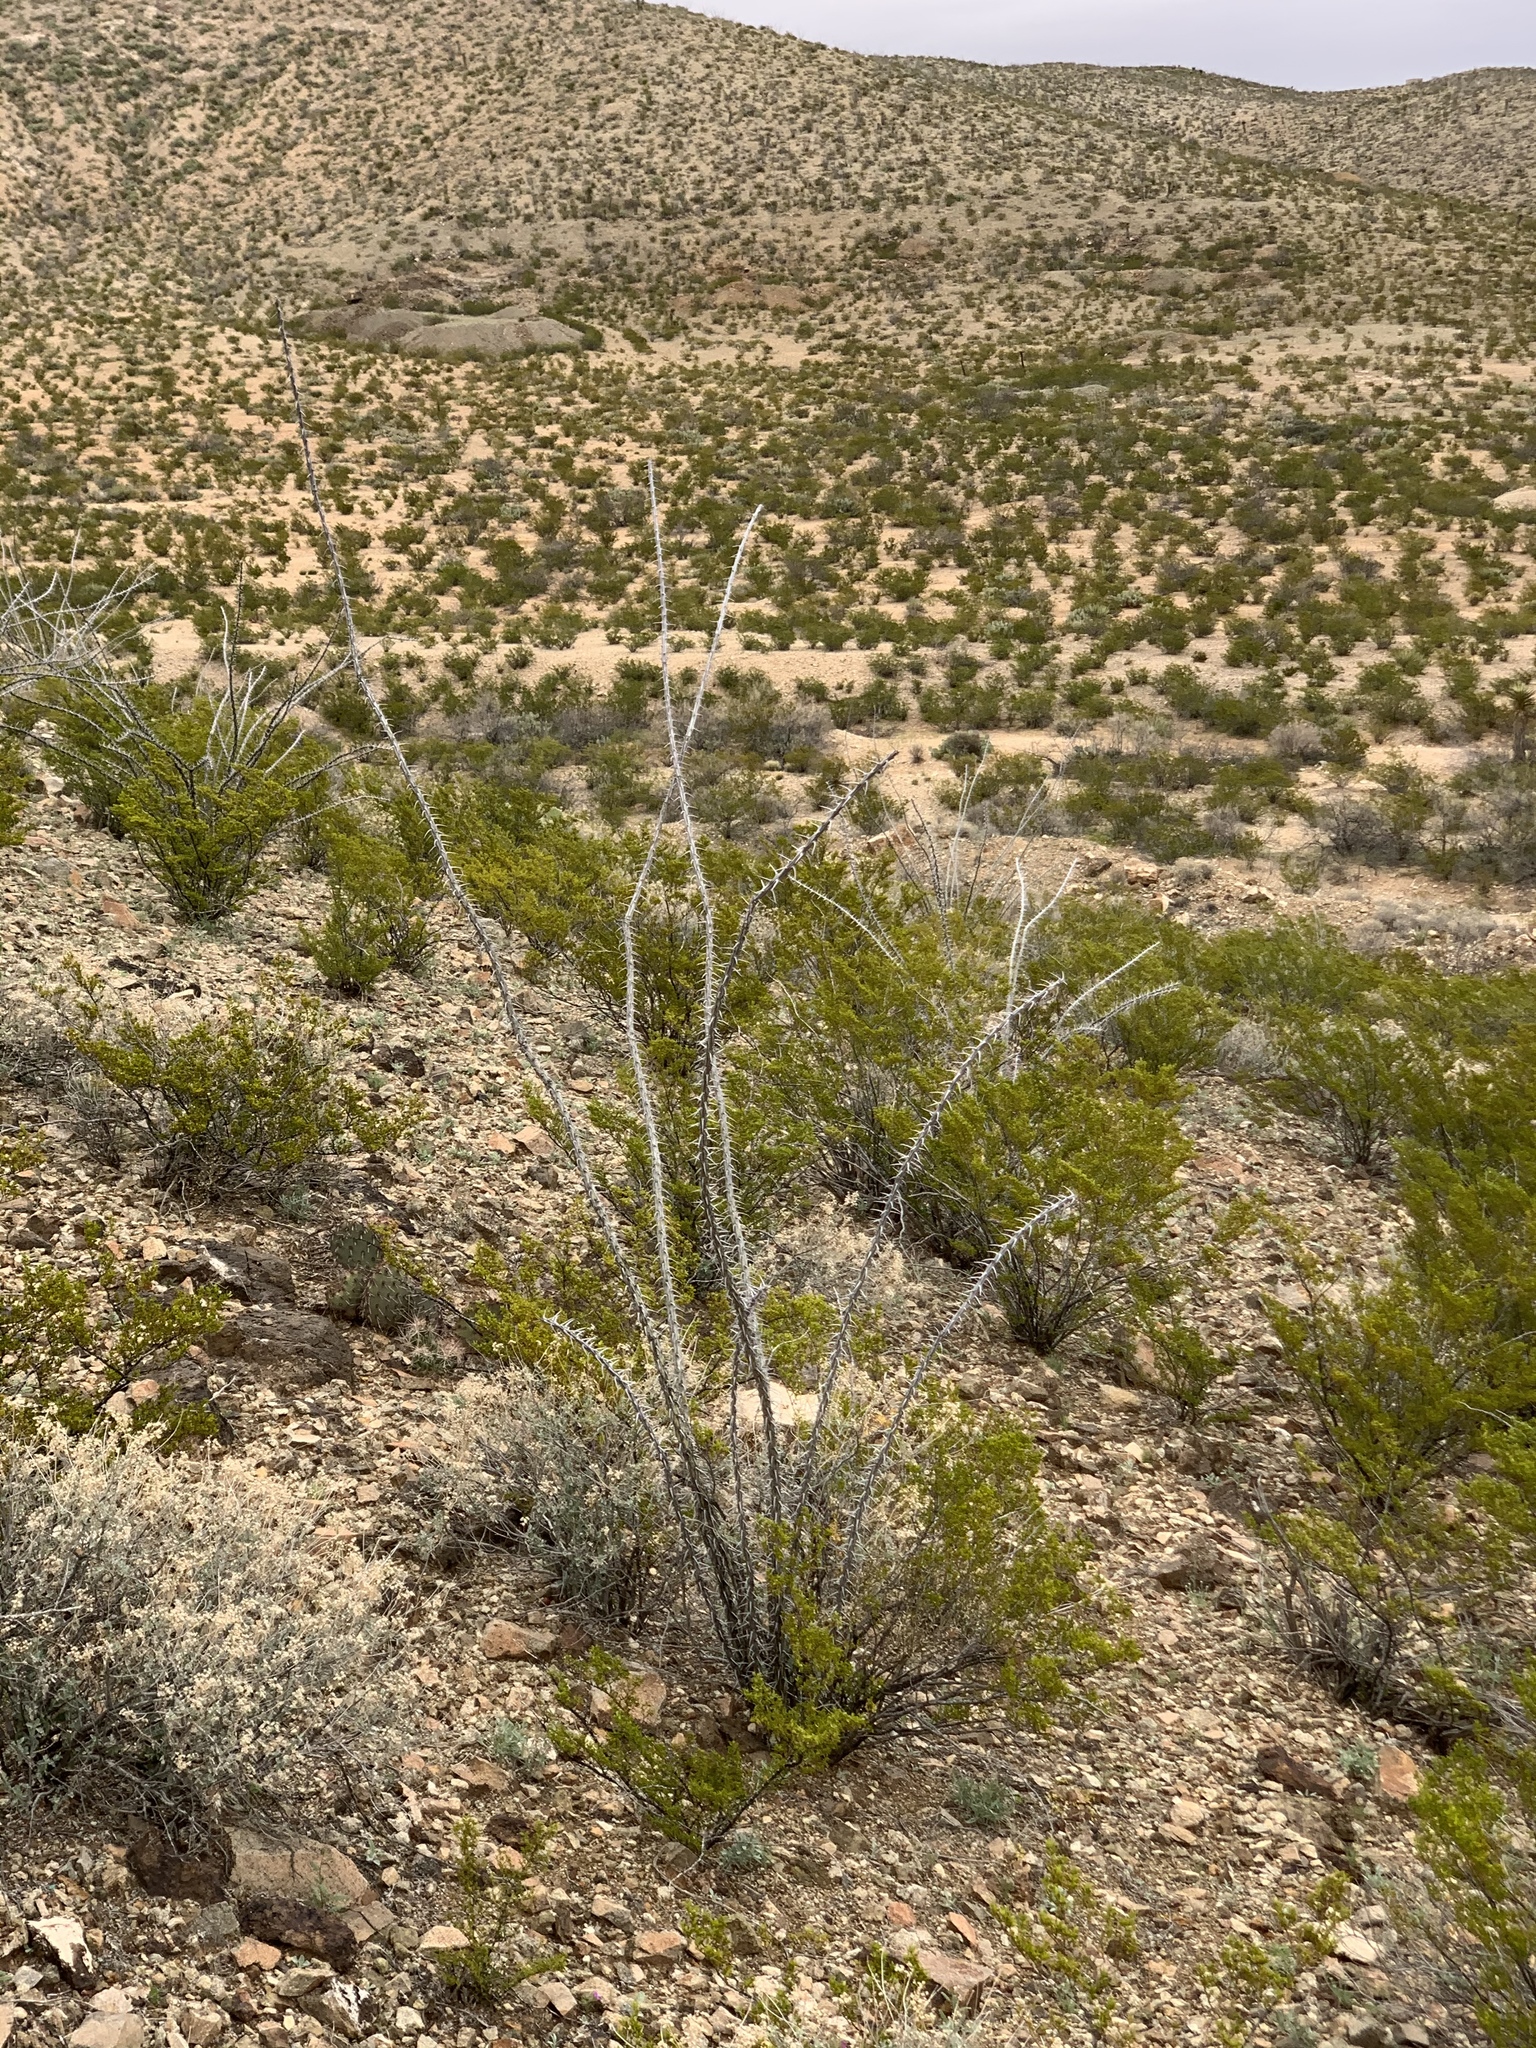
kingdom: Plantae
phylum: Tracheophyta
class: Magnoliopsida
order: Ericales
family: Fouquieriaceae
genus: Fouquieria
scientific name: Fouquieria splendens
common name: Vine-cactus
